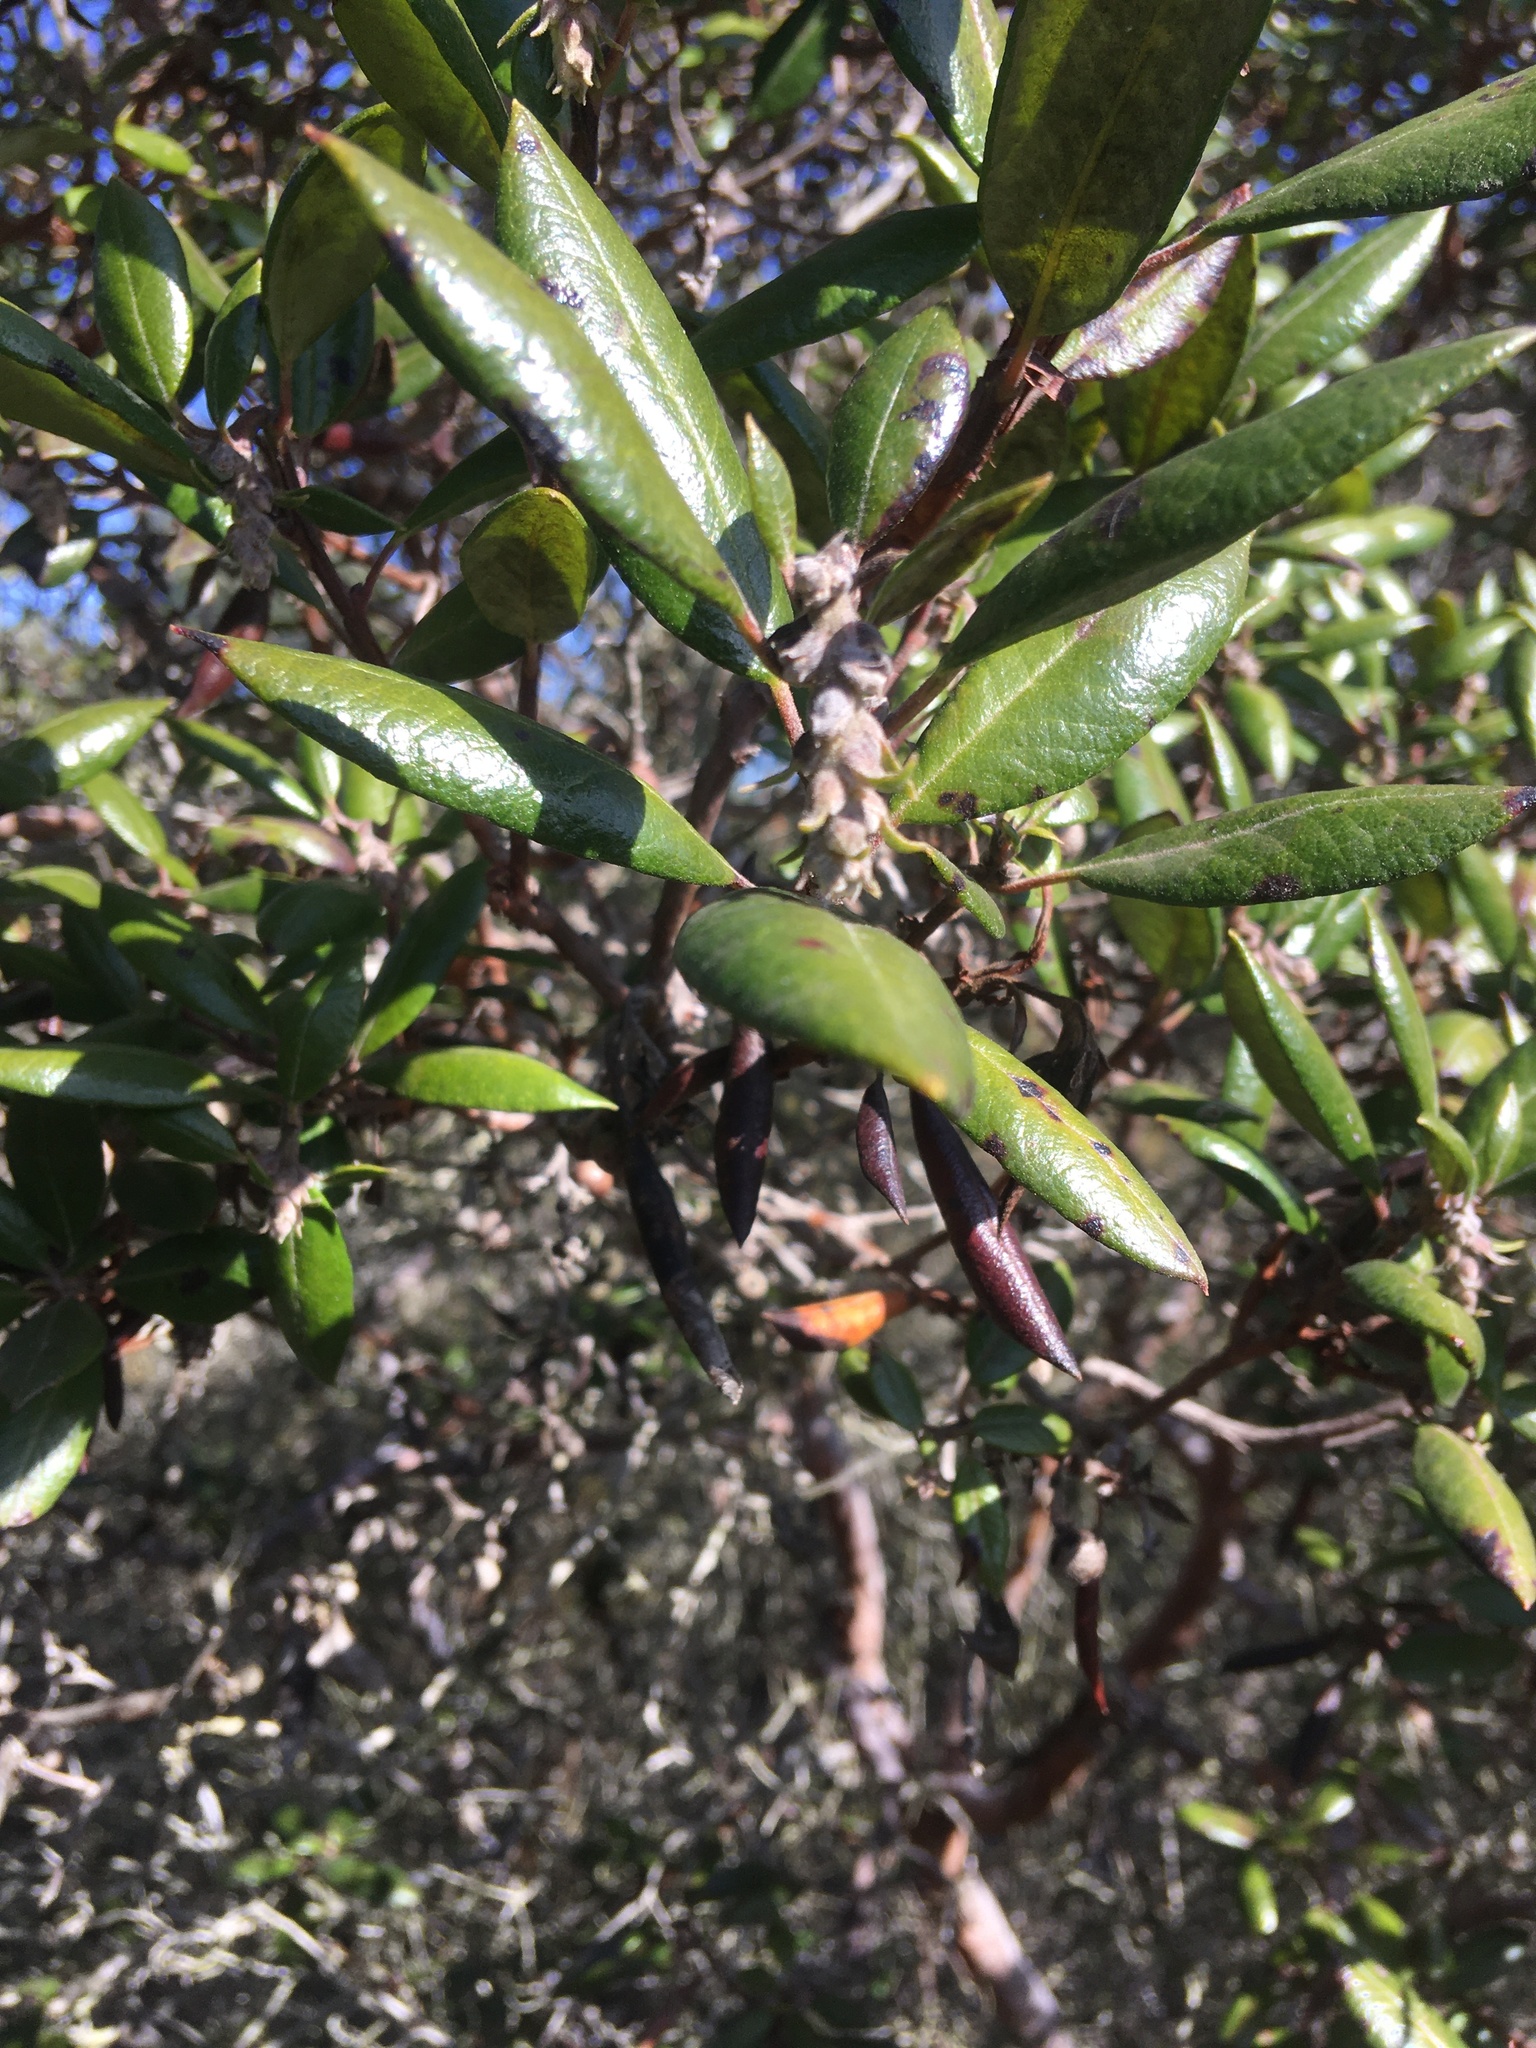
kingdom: Plantae
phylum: Tracheophyta
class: Magnoliopsida
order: Ericales
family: Ericaceae
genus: Arctostaphylos
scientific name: Arctostaphylos bicolor
